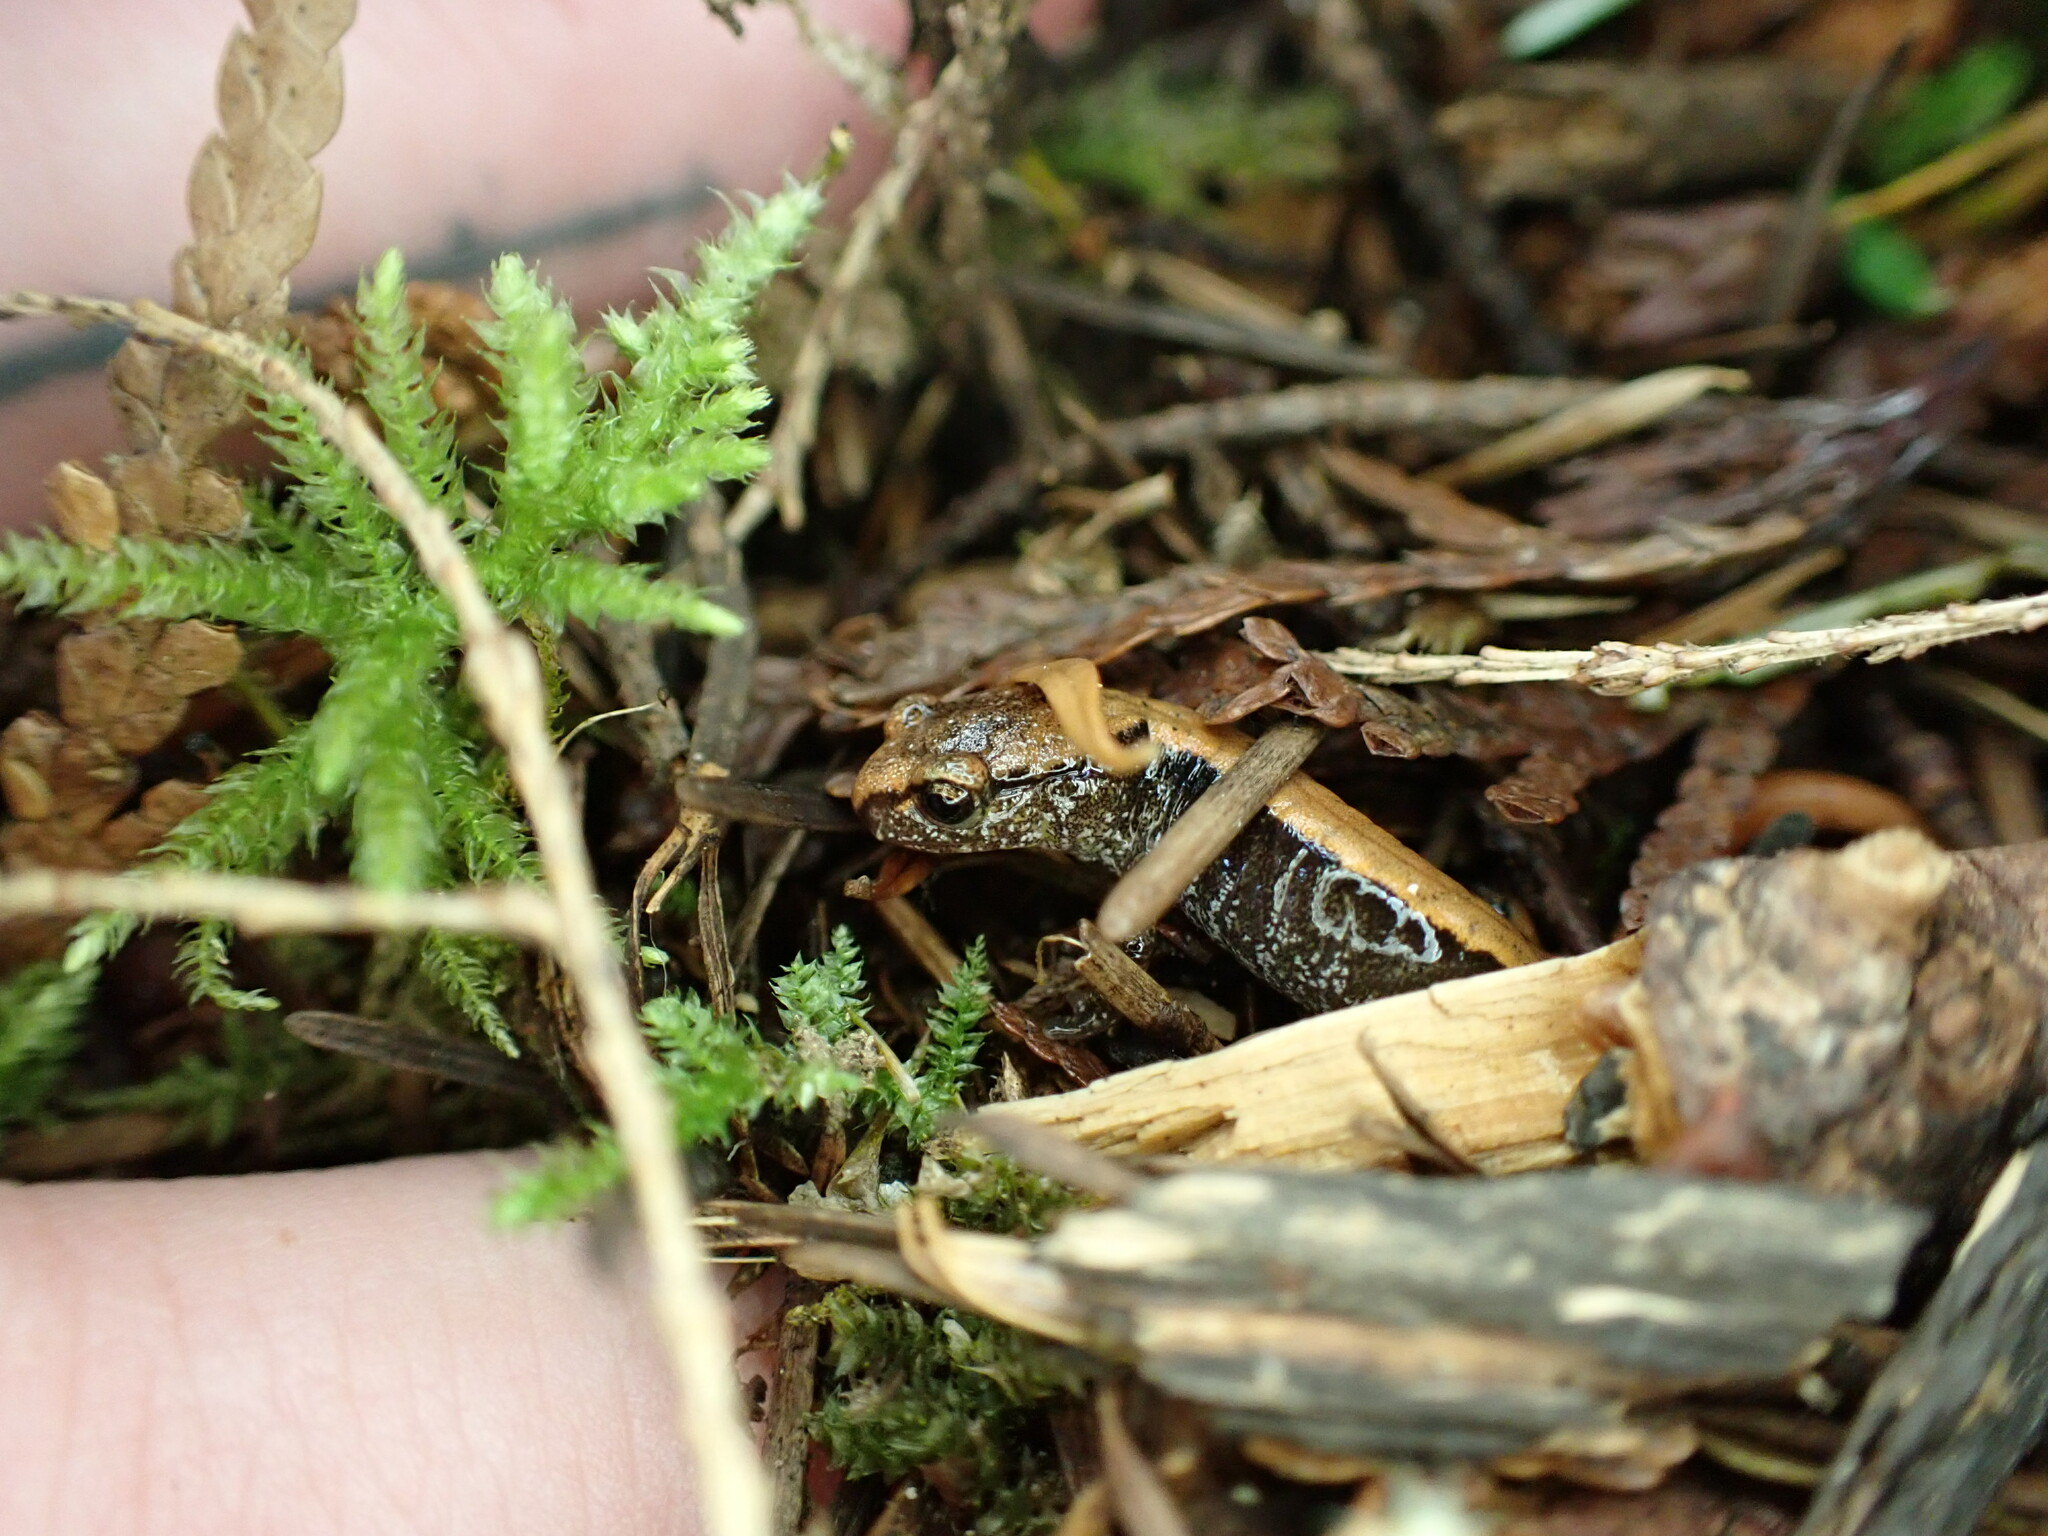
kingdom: Animalia
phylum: Chordata
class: Amphibia
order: Caudata
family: Plethodontidae
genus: Plethodon
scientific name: Plethodon vehiculum
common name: Western red-backed salamander
